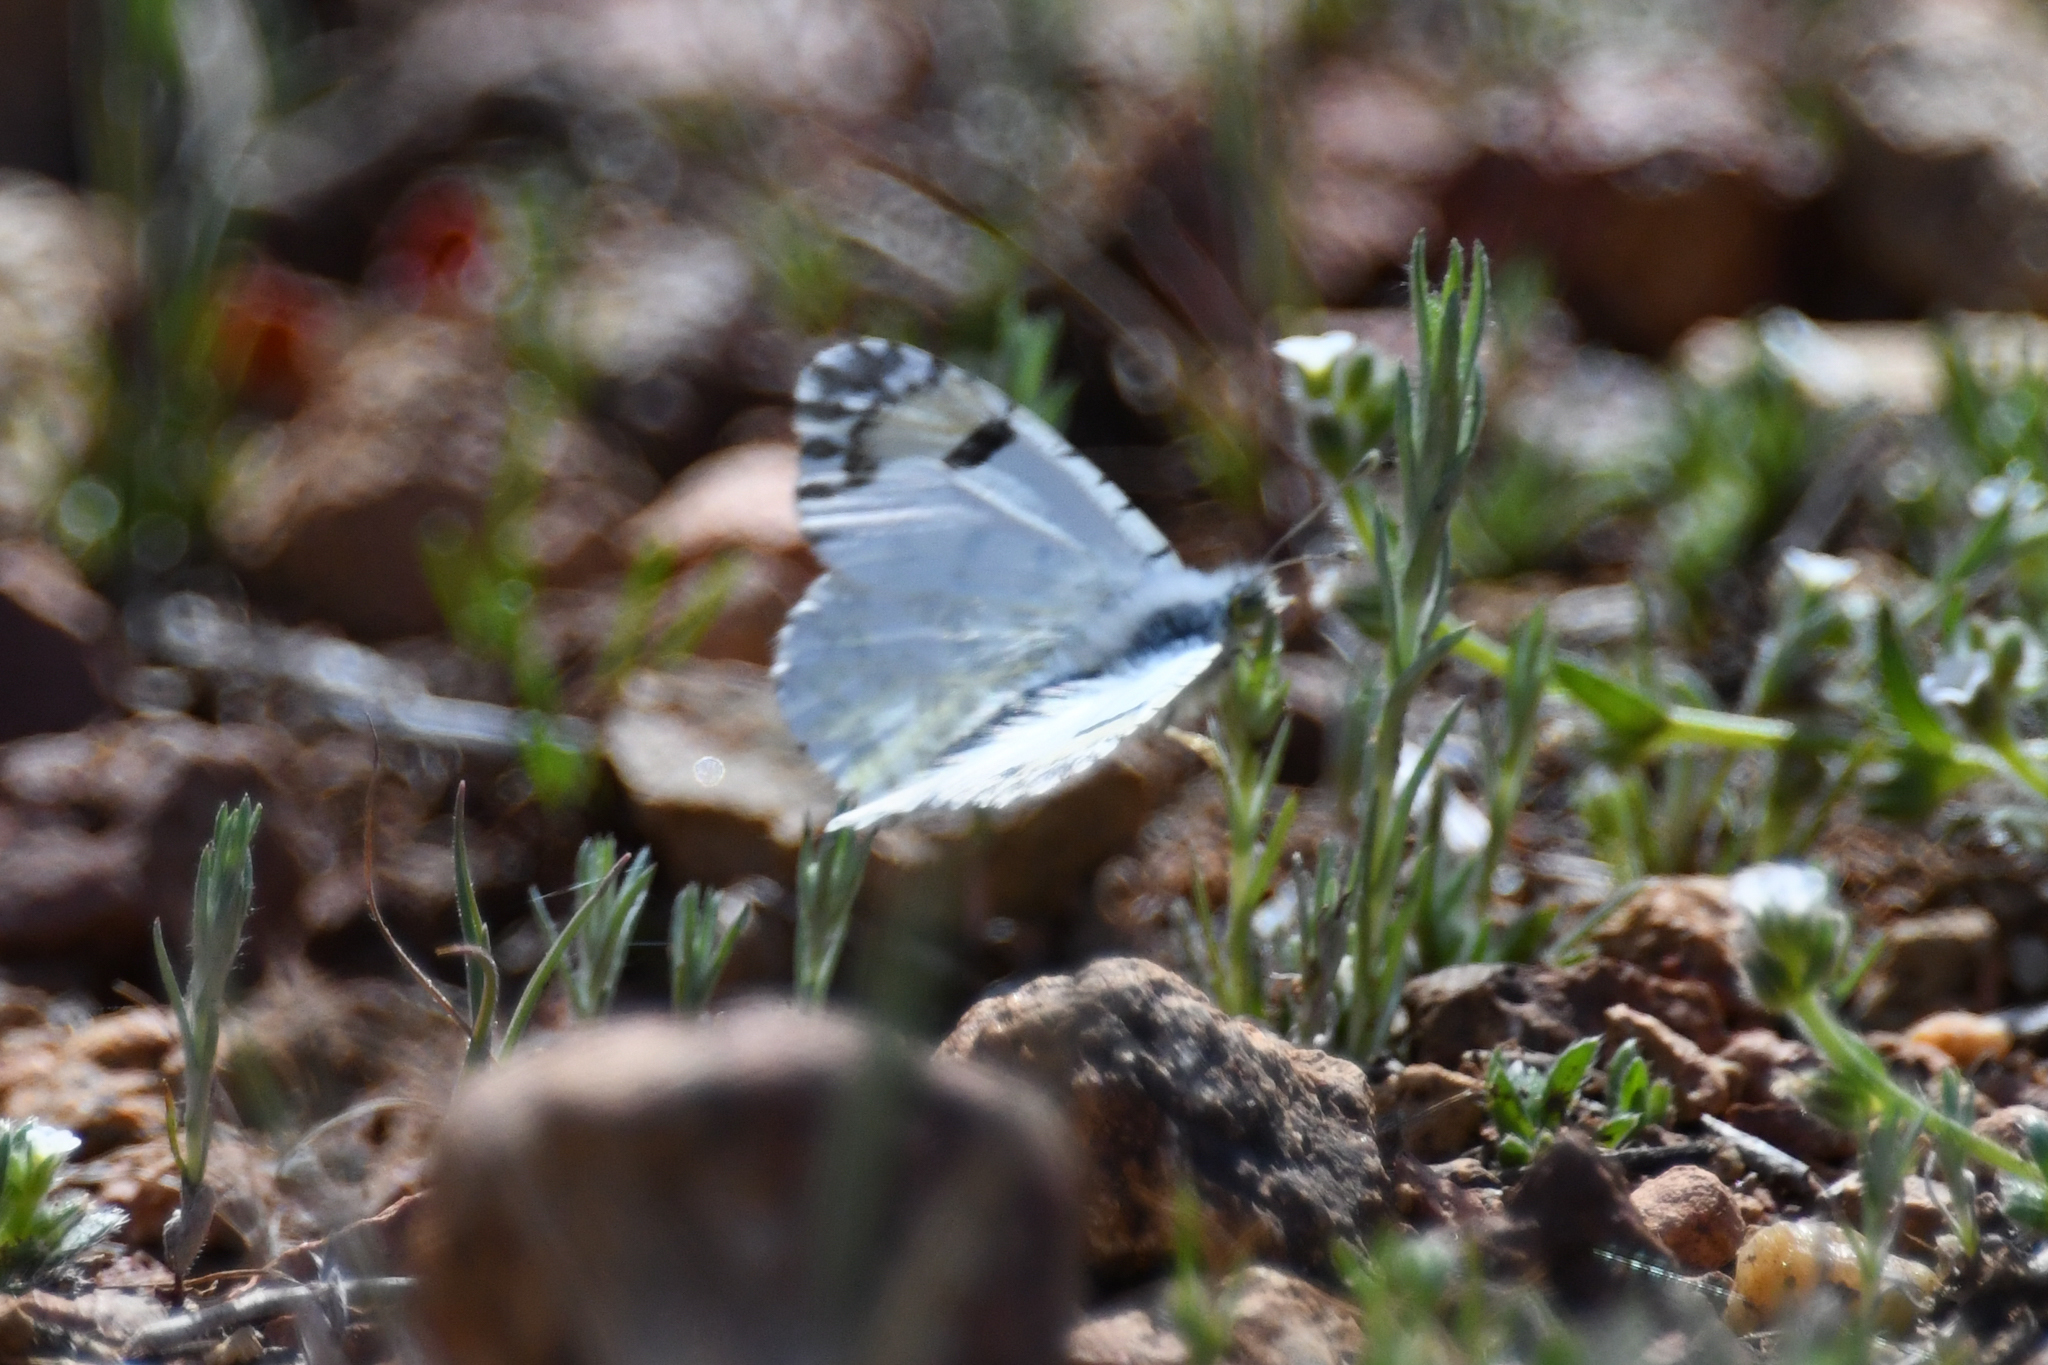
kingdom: Animalia
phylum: Arthropoda
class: Insecta
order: Lepidoptera
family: Pieridae
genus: Anthocharis
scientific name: Anthocharis cethura
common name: Desert orangetip
